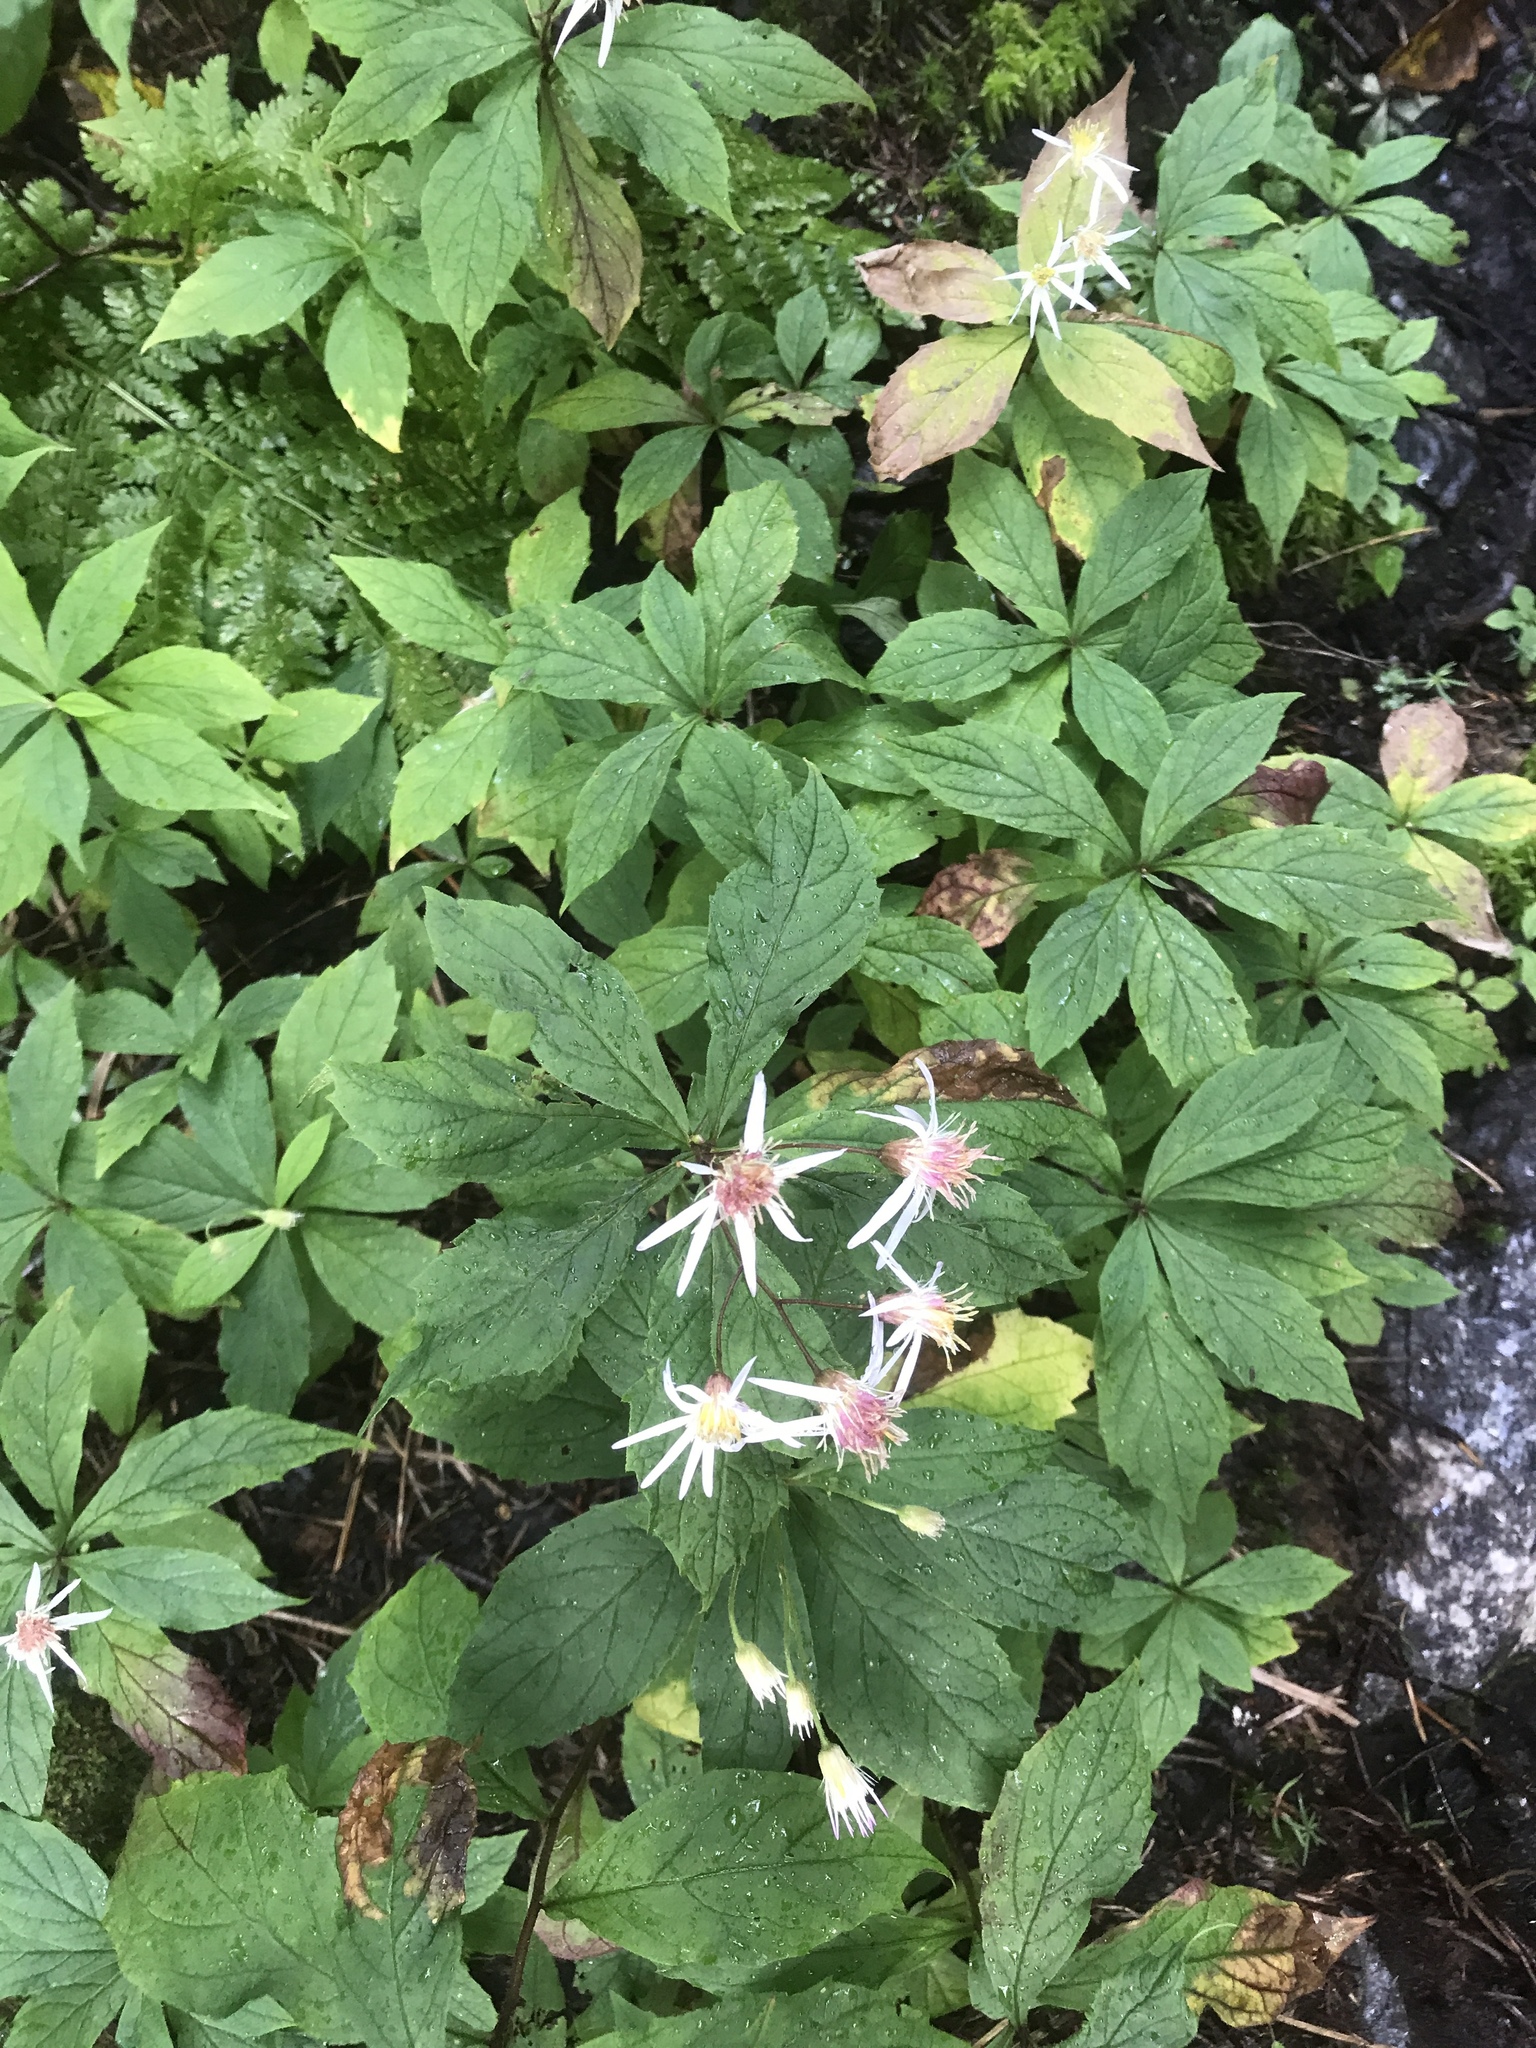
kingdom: Plantae
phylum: Tracheophyta
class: Magnoliopsida
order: Asterales
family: Asteraceae
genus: Oclemena
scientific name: Oclemena acuminata
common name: Mountain aster
